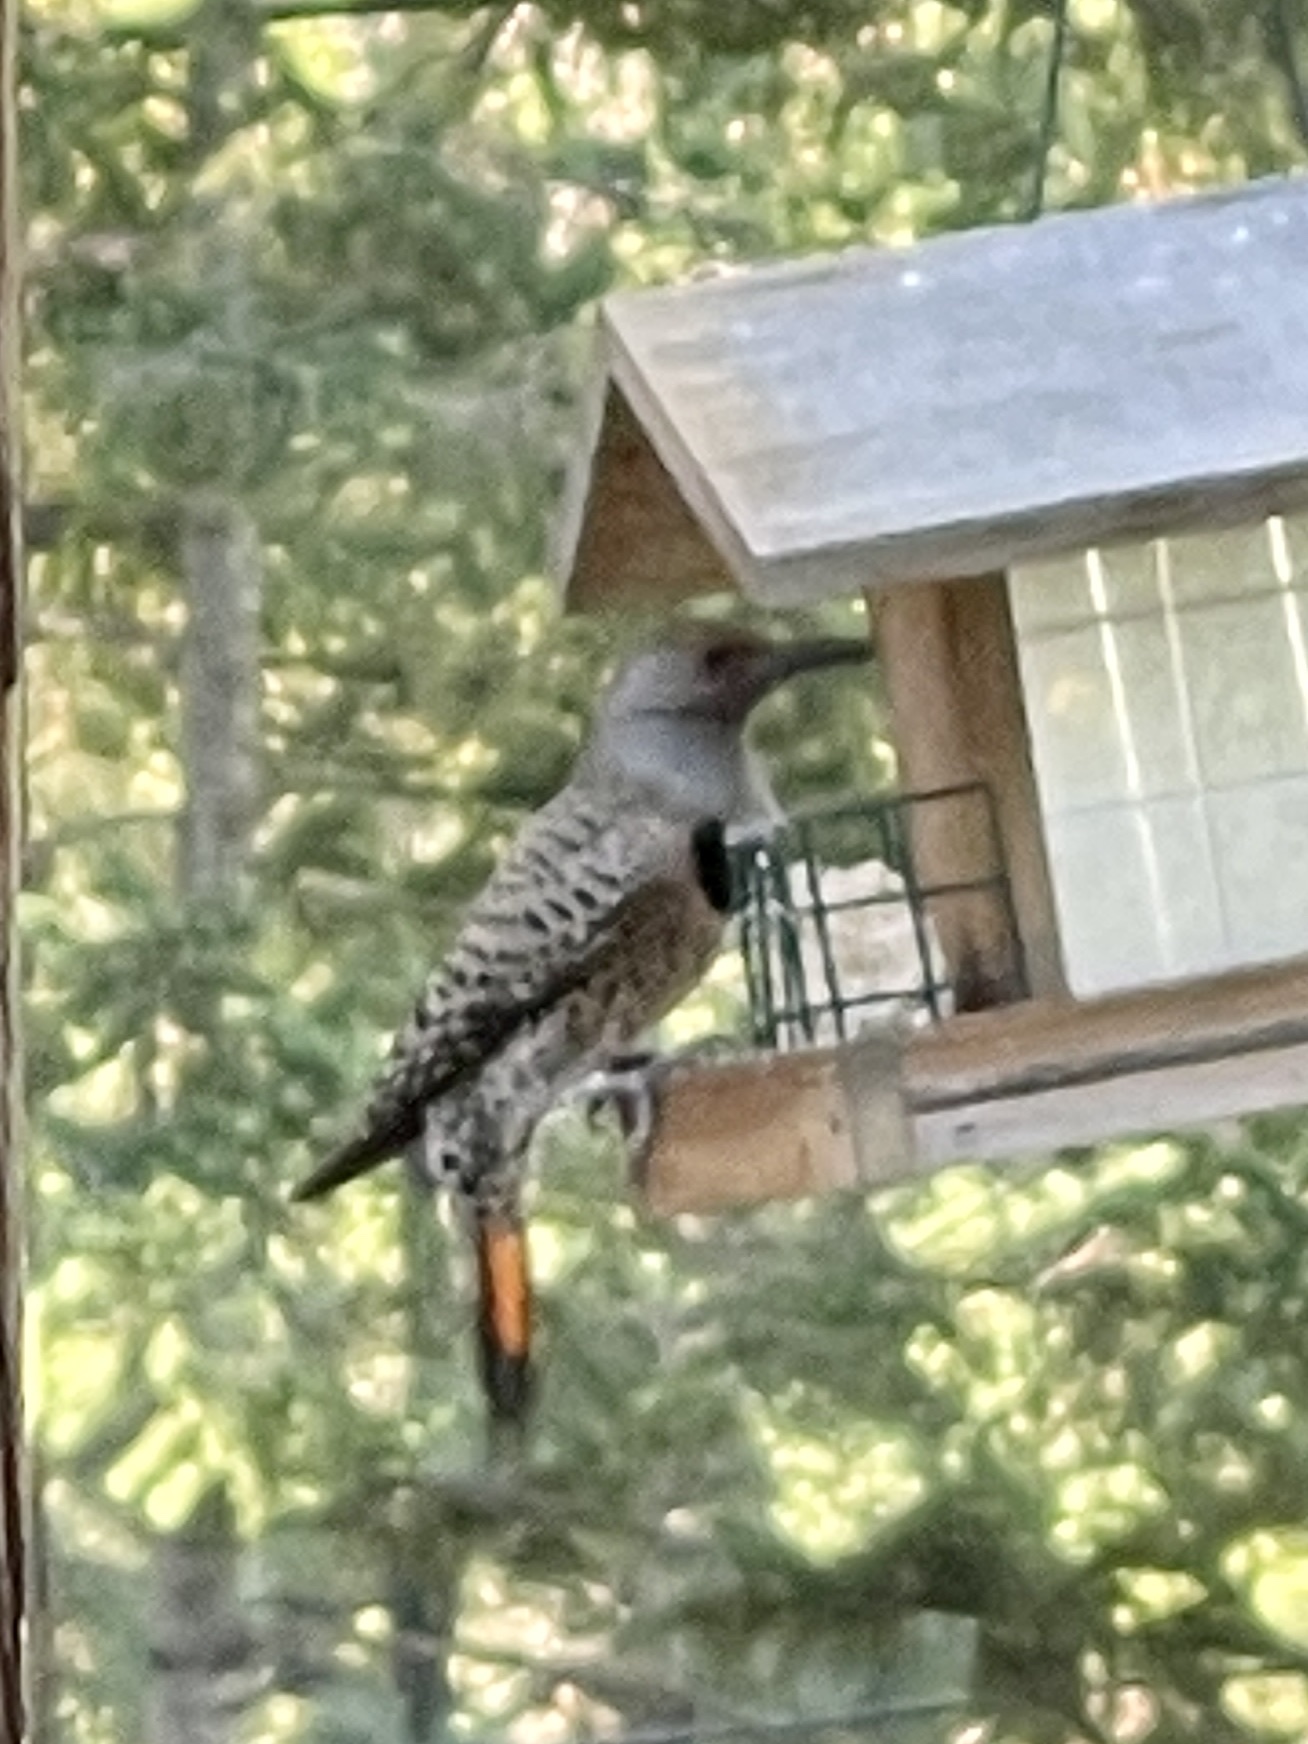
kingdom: Animalia
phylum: Chordata
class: Aves
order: Piciformes
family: Picidae
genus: Colaptes
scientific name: Colaptes auratus
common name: Northern flicker
